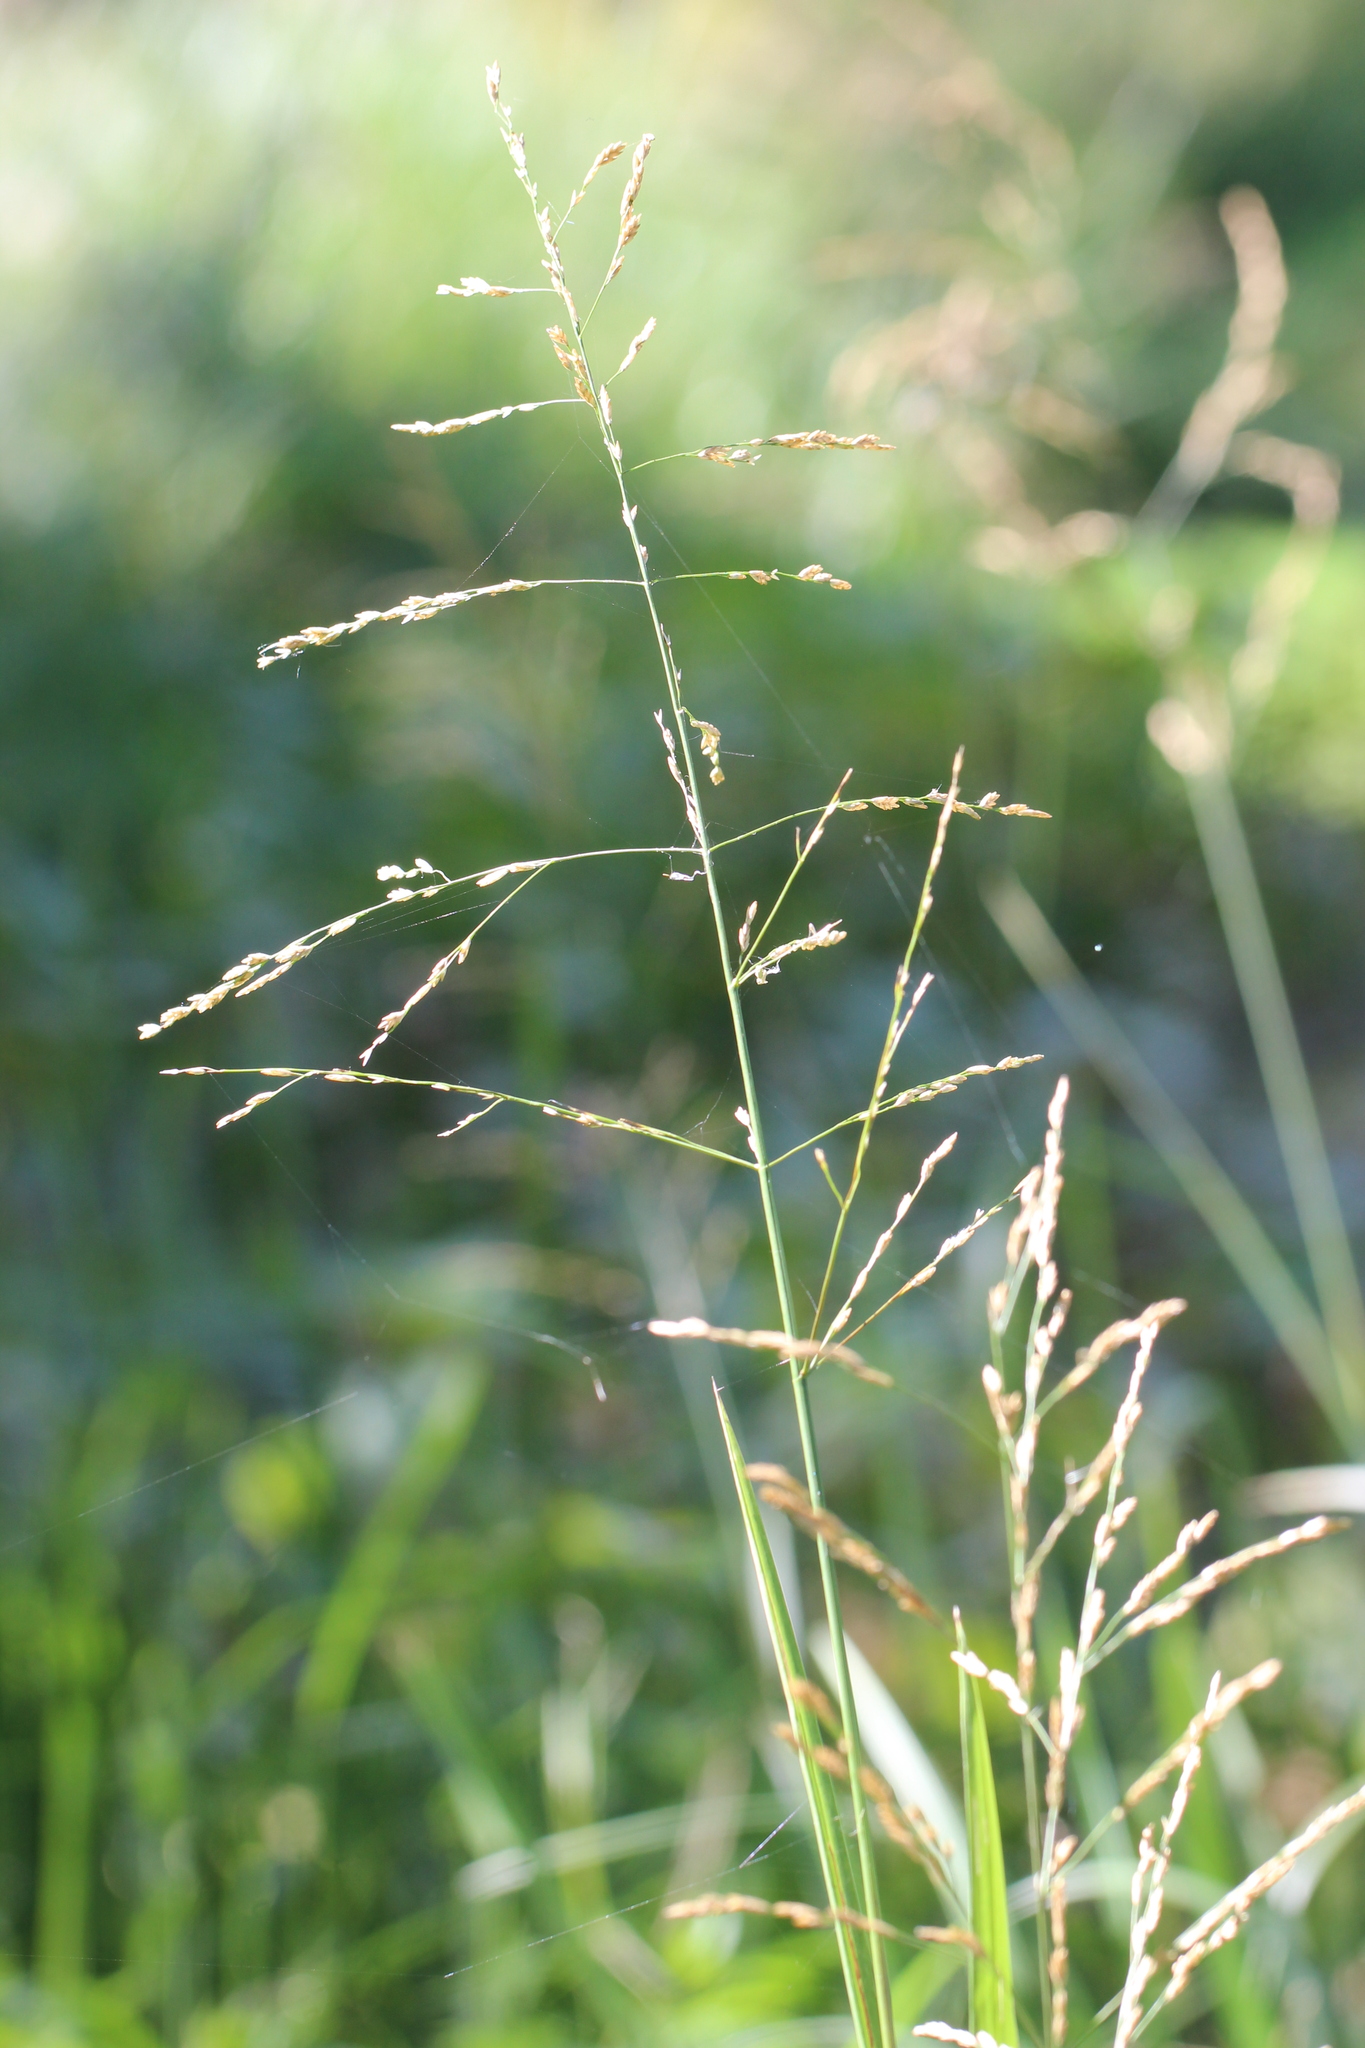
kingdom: Plantae
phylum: Tracheophyta
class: Liliopsida
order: Poales
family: Poaceae
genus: Glyceria
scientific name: Glyceria maxima
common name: Reed mannagrass
